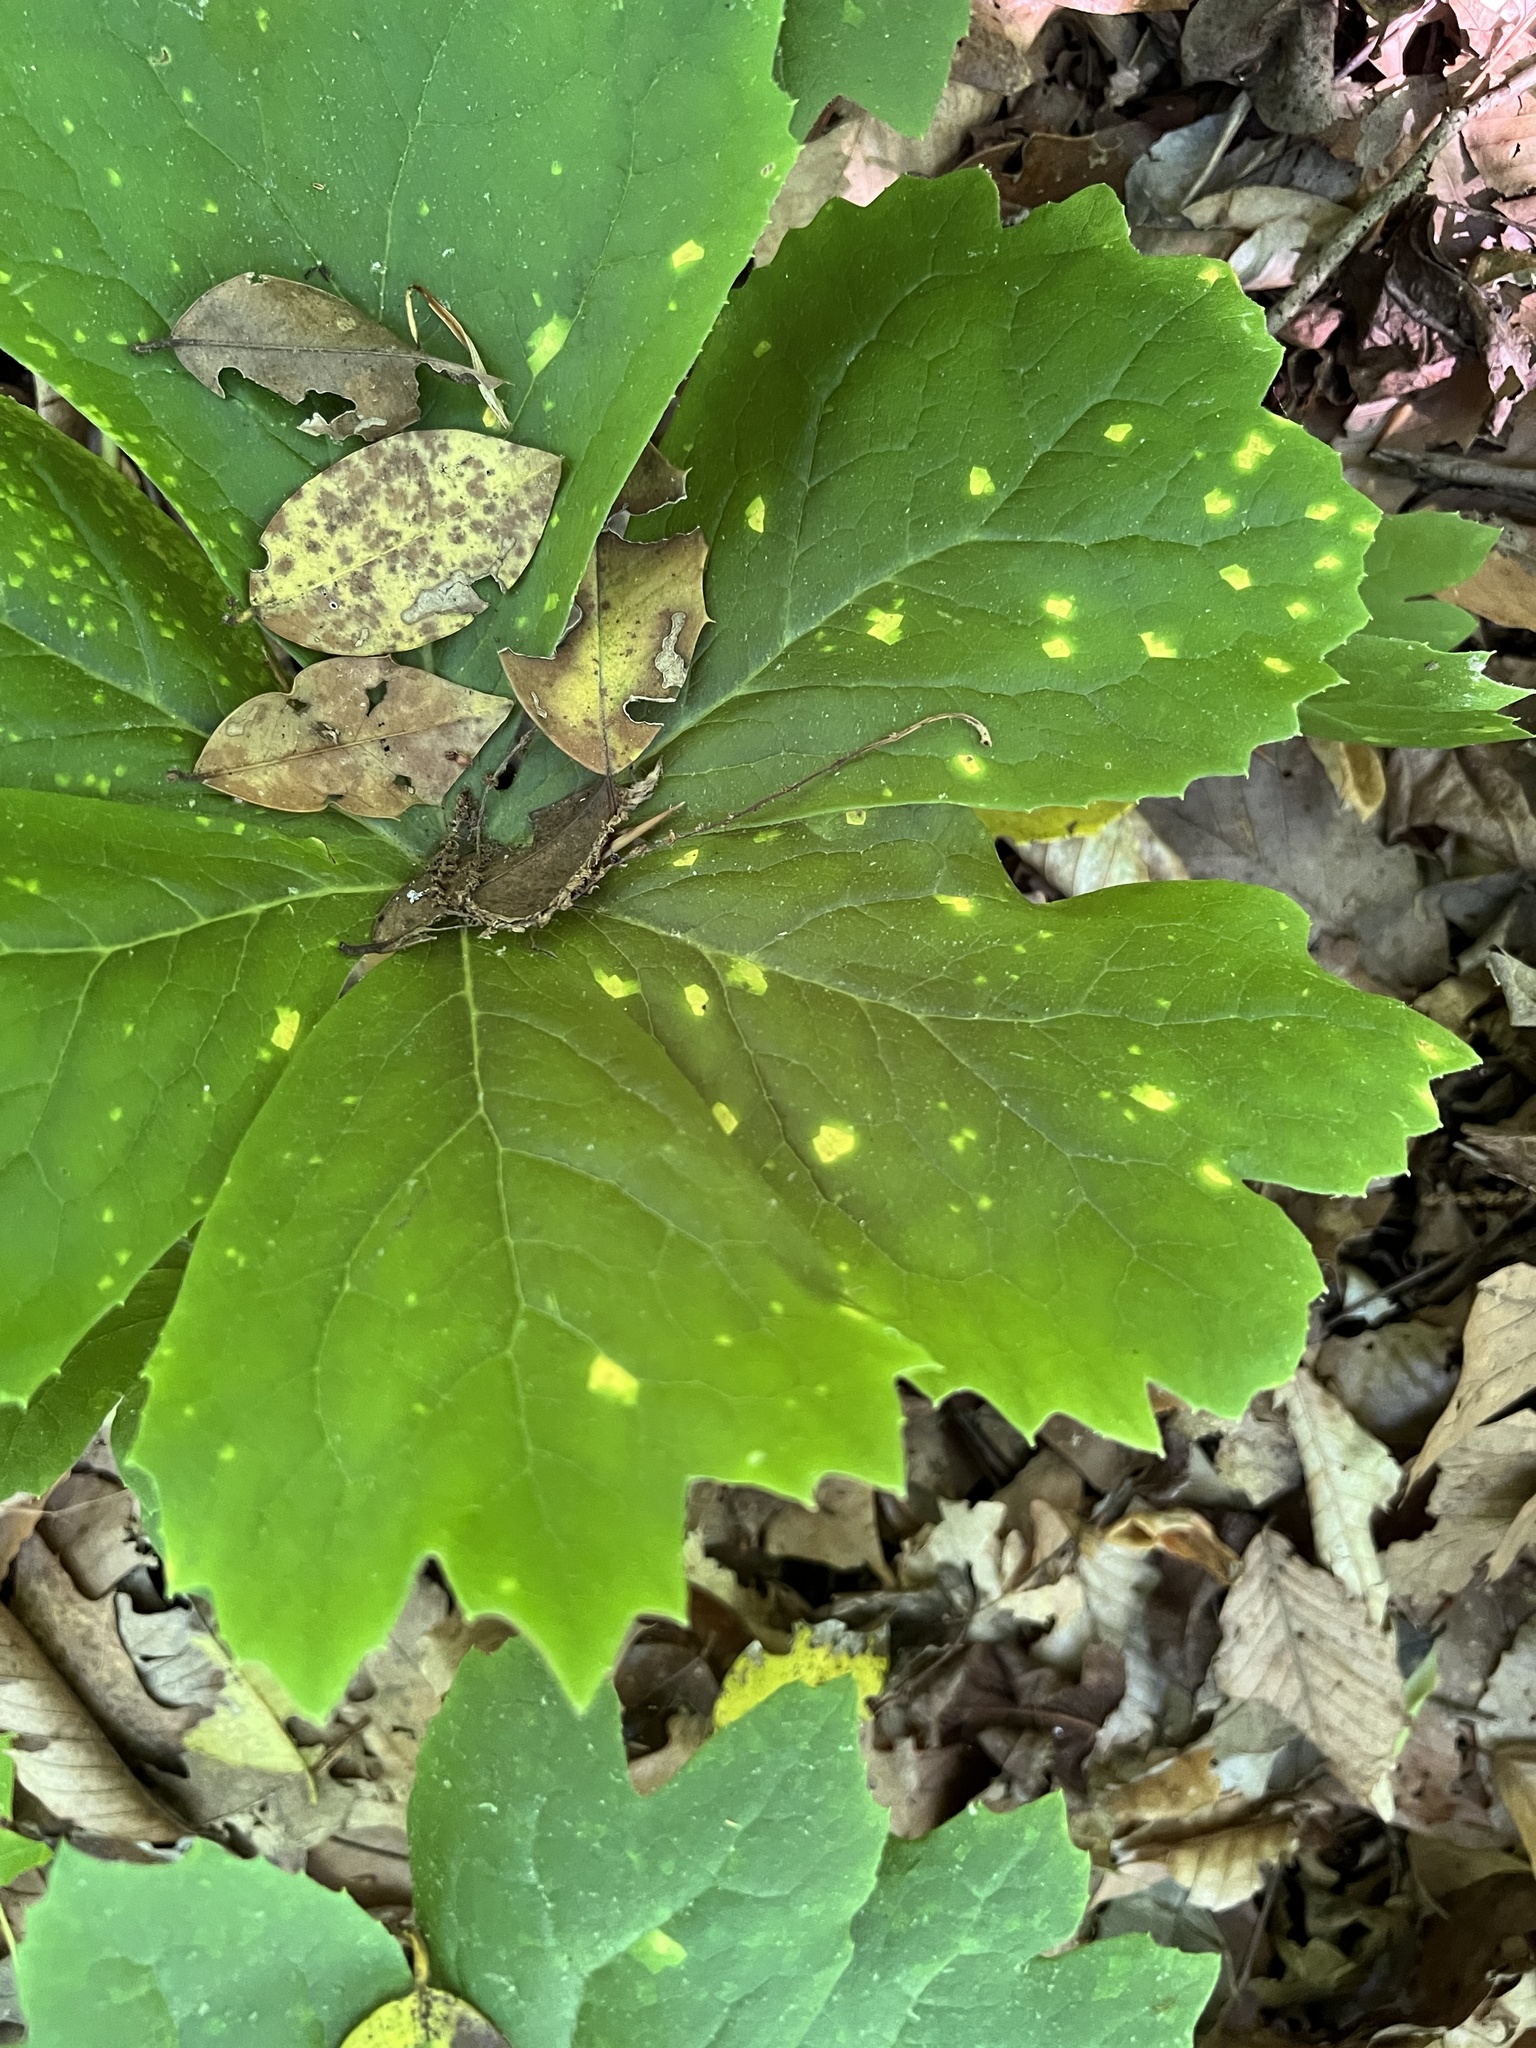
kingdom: Fungi
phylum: Basidiomycota
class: Pucciniomycetes
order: Pucciniales
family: Pucciniaceae
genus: Puccinia
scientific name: Puccinia podophylli
